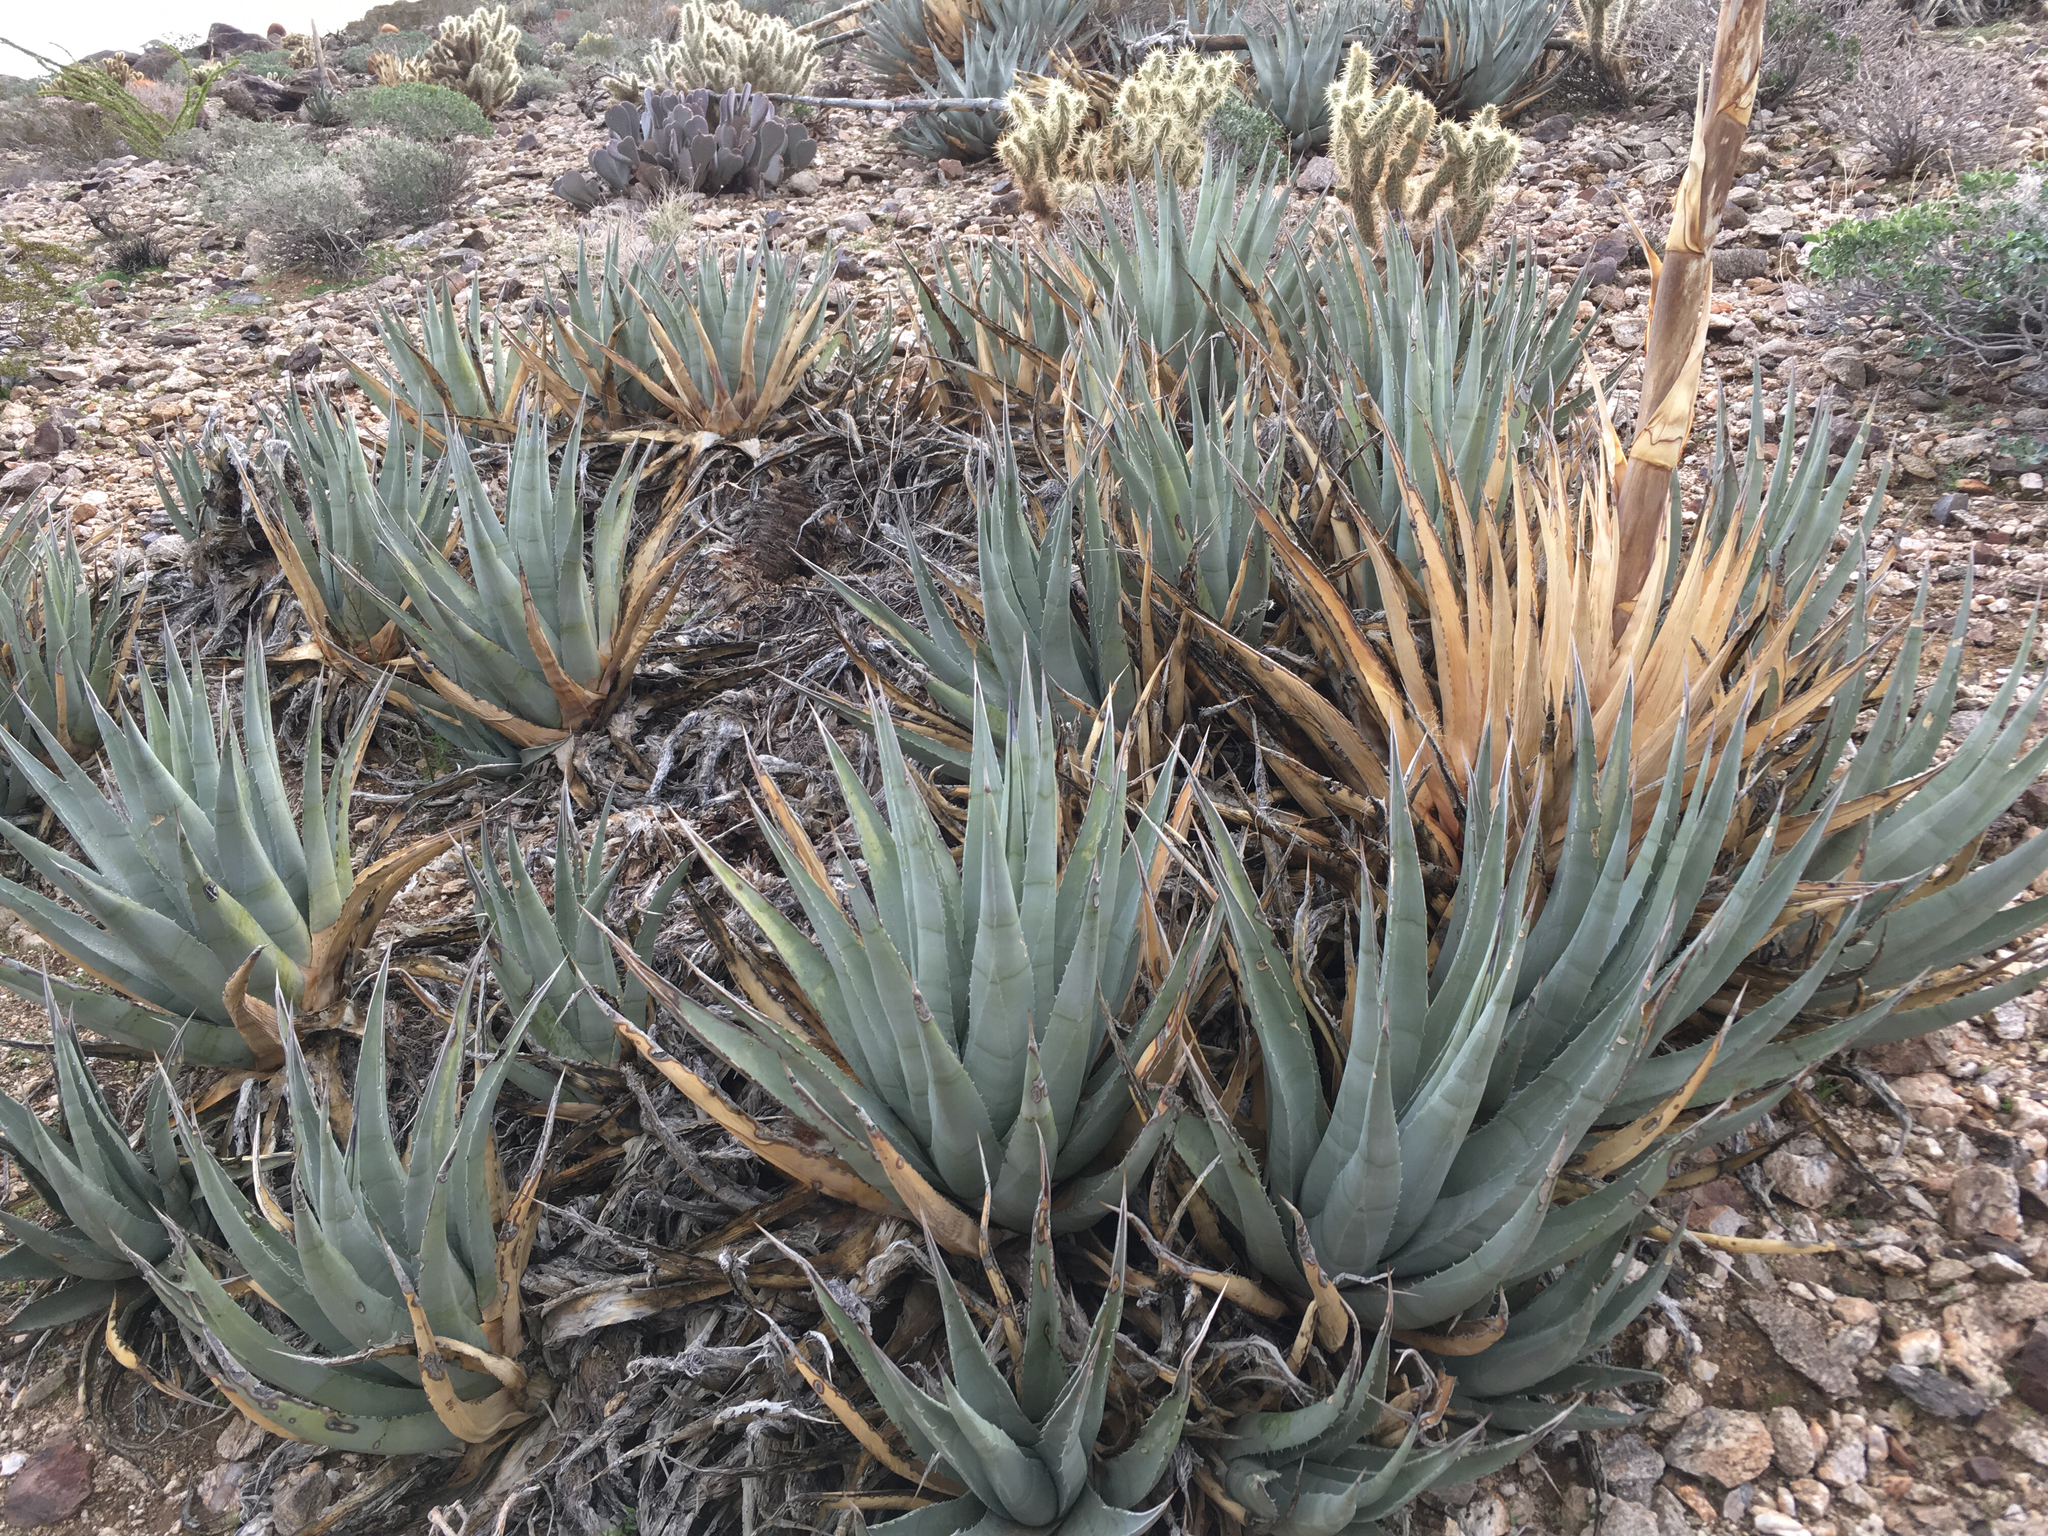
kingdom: Plantae
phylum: Tracheophyta
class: Liliopsida
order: Asparagales
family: Asparagaceae
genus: Agave
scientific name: Agave deserti
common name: Desert agave
